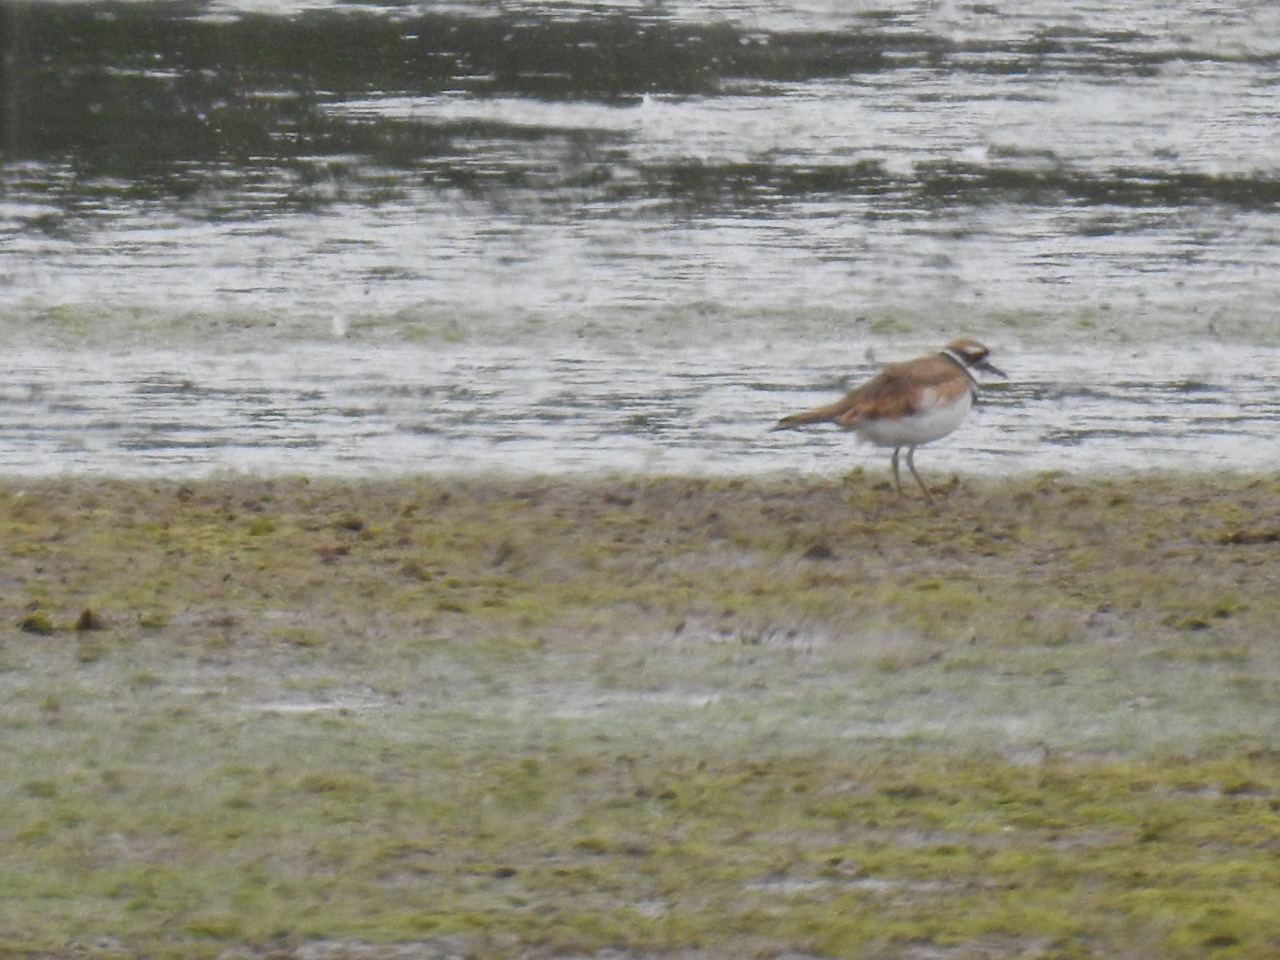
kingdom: Animalia
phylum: Chordata
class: Aves
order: Charadriiformes
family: Charadriidae
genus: Charadrius
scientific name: Charadrius vociferus
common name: Killdeer
